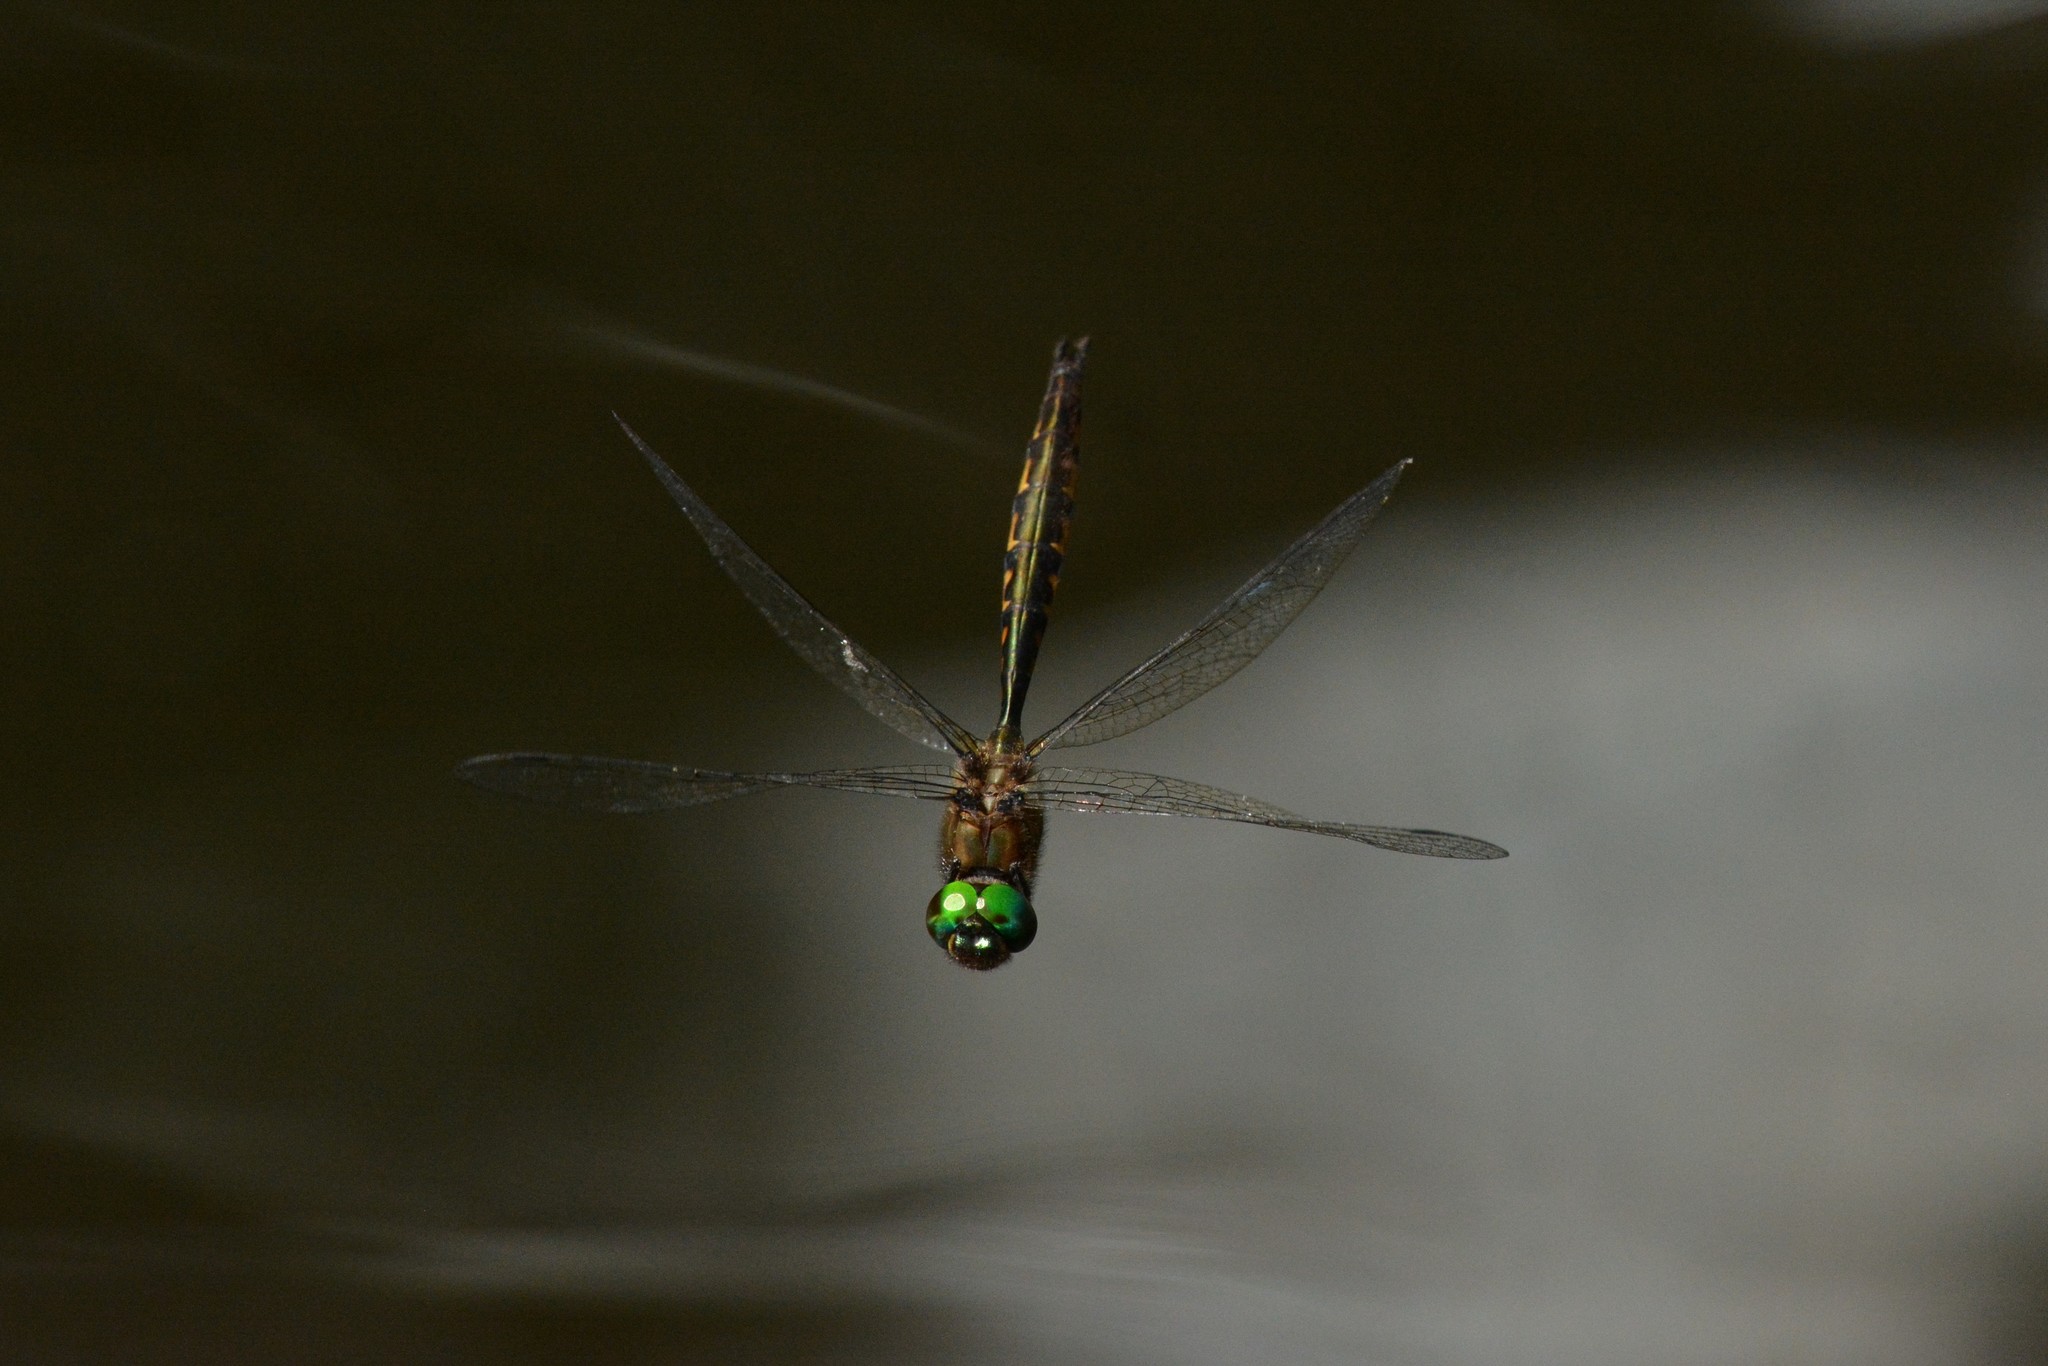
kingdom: Animalia
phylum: Arthropoda
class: Insecta
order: Odonata
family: Corduliidae
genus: Hemicordulia
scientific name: Hemicordulia australiae
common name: Sentry dragonfly
